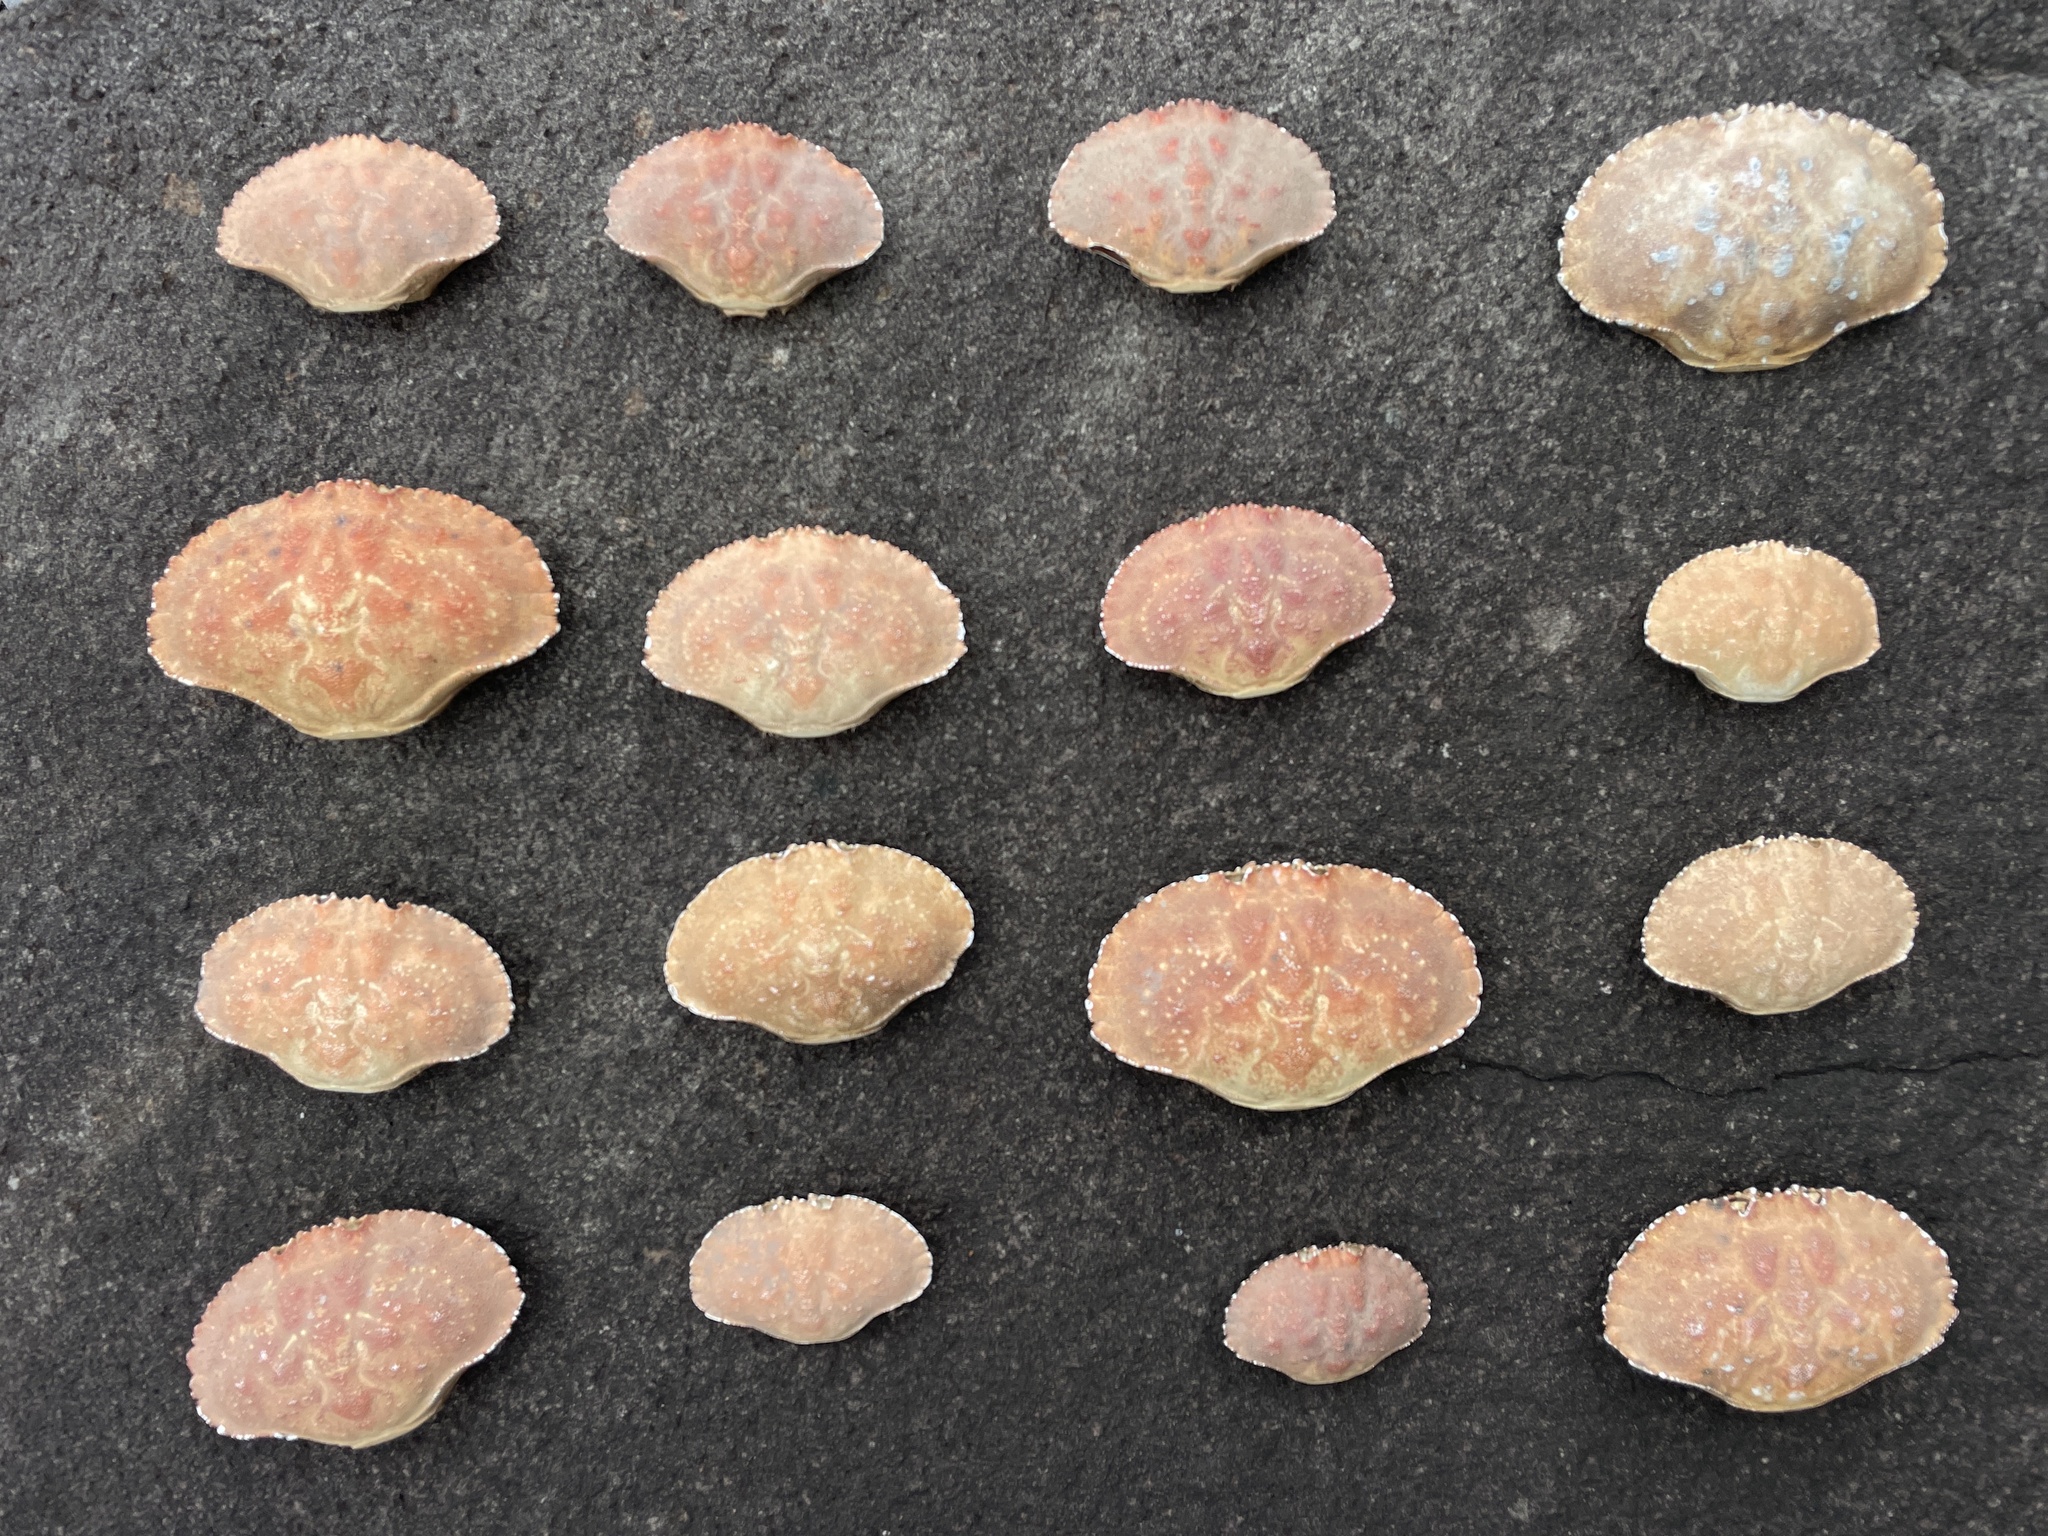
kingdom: Animalia
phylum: Arthropoda
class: Malacostraca
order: Decapoda
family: Cancridae
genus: Cancer
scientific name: Cancer borealis
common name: Jonah crab
